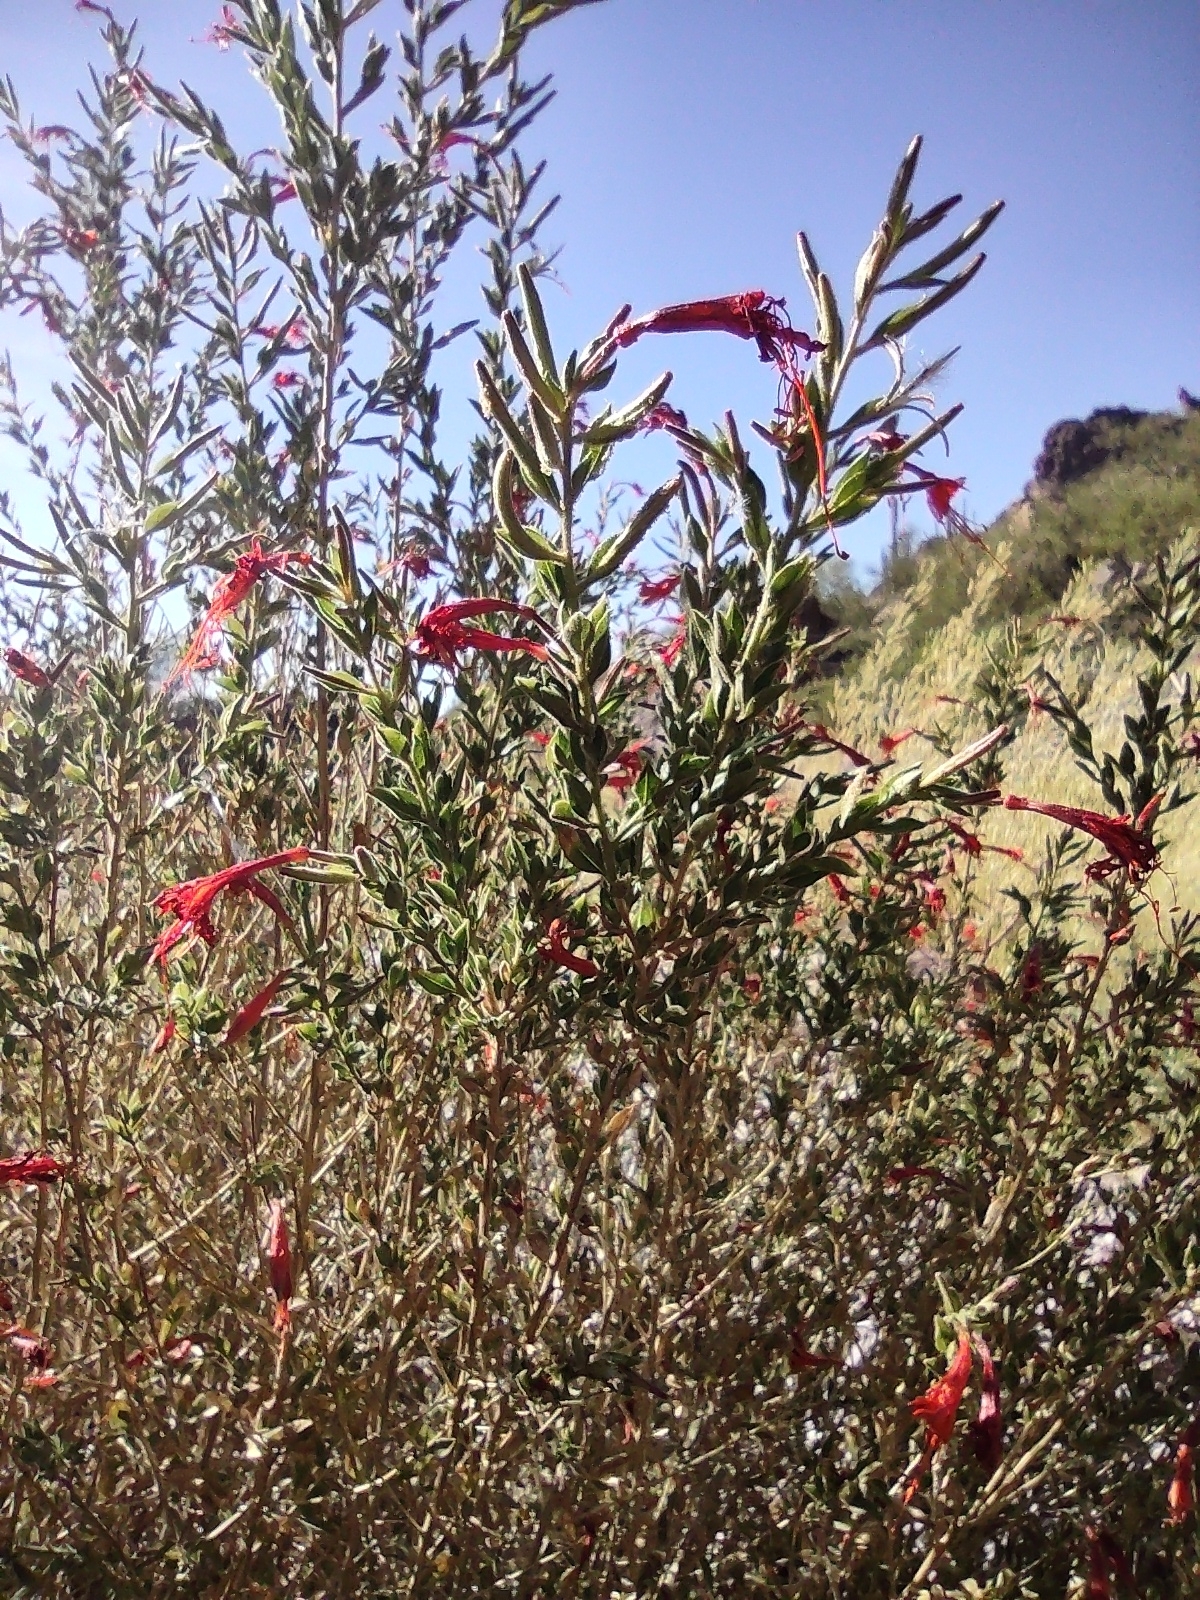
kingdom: Plantae
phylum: Tracheophyta
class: Magnoliopsida
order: Lamiales
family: Acanthaceae
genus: Anisacanthus
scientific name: Anisacanthus thurberi
